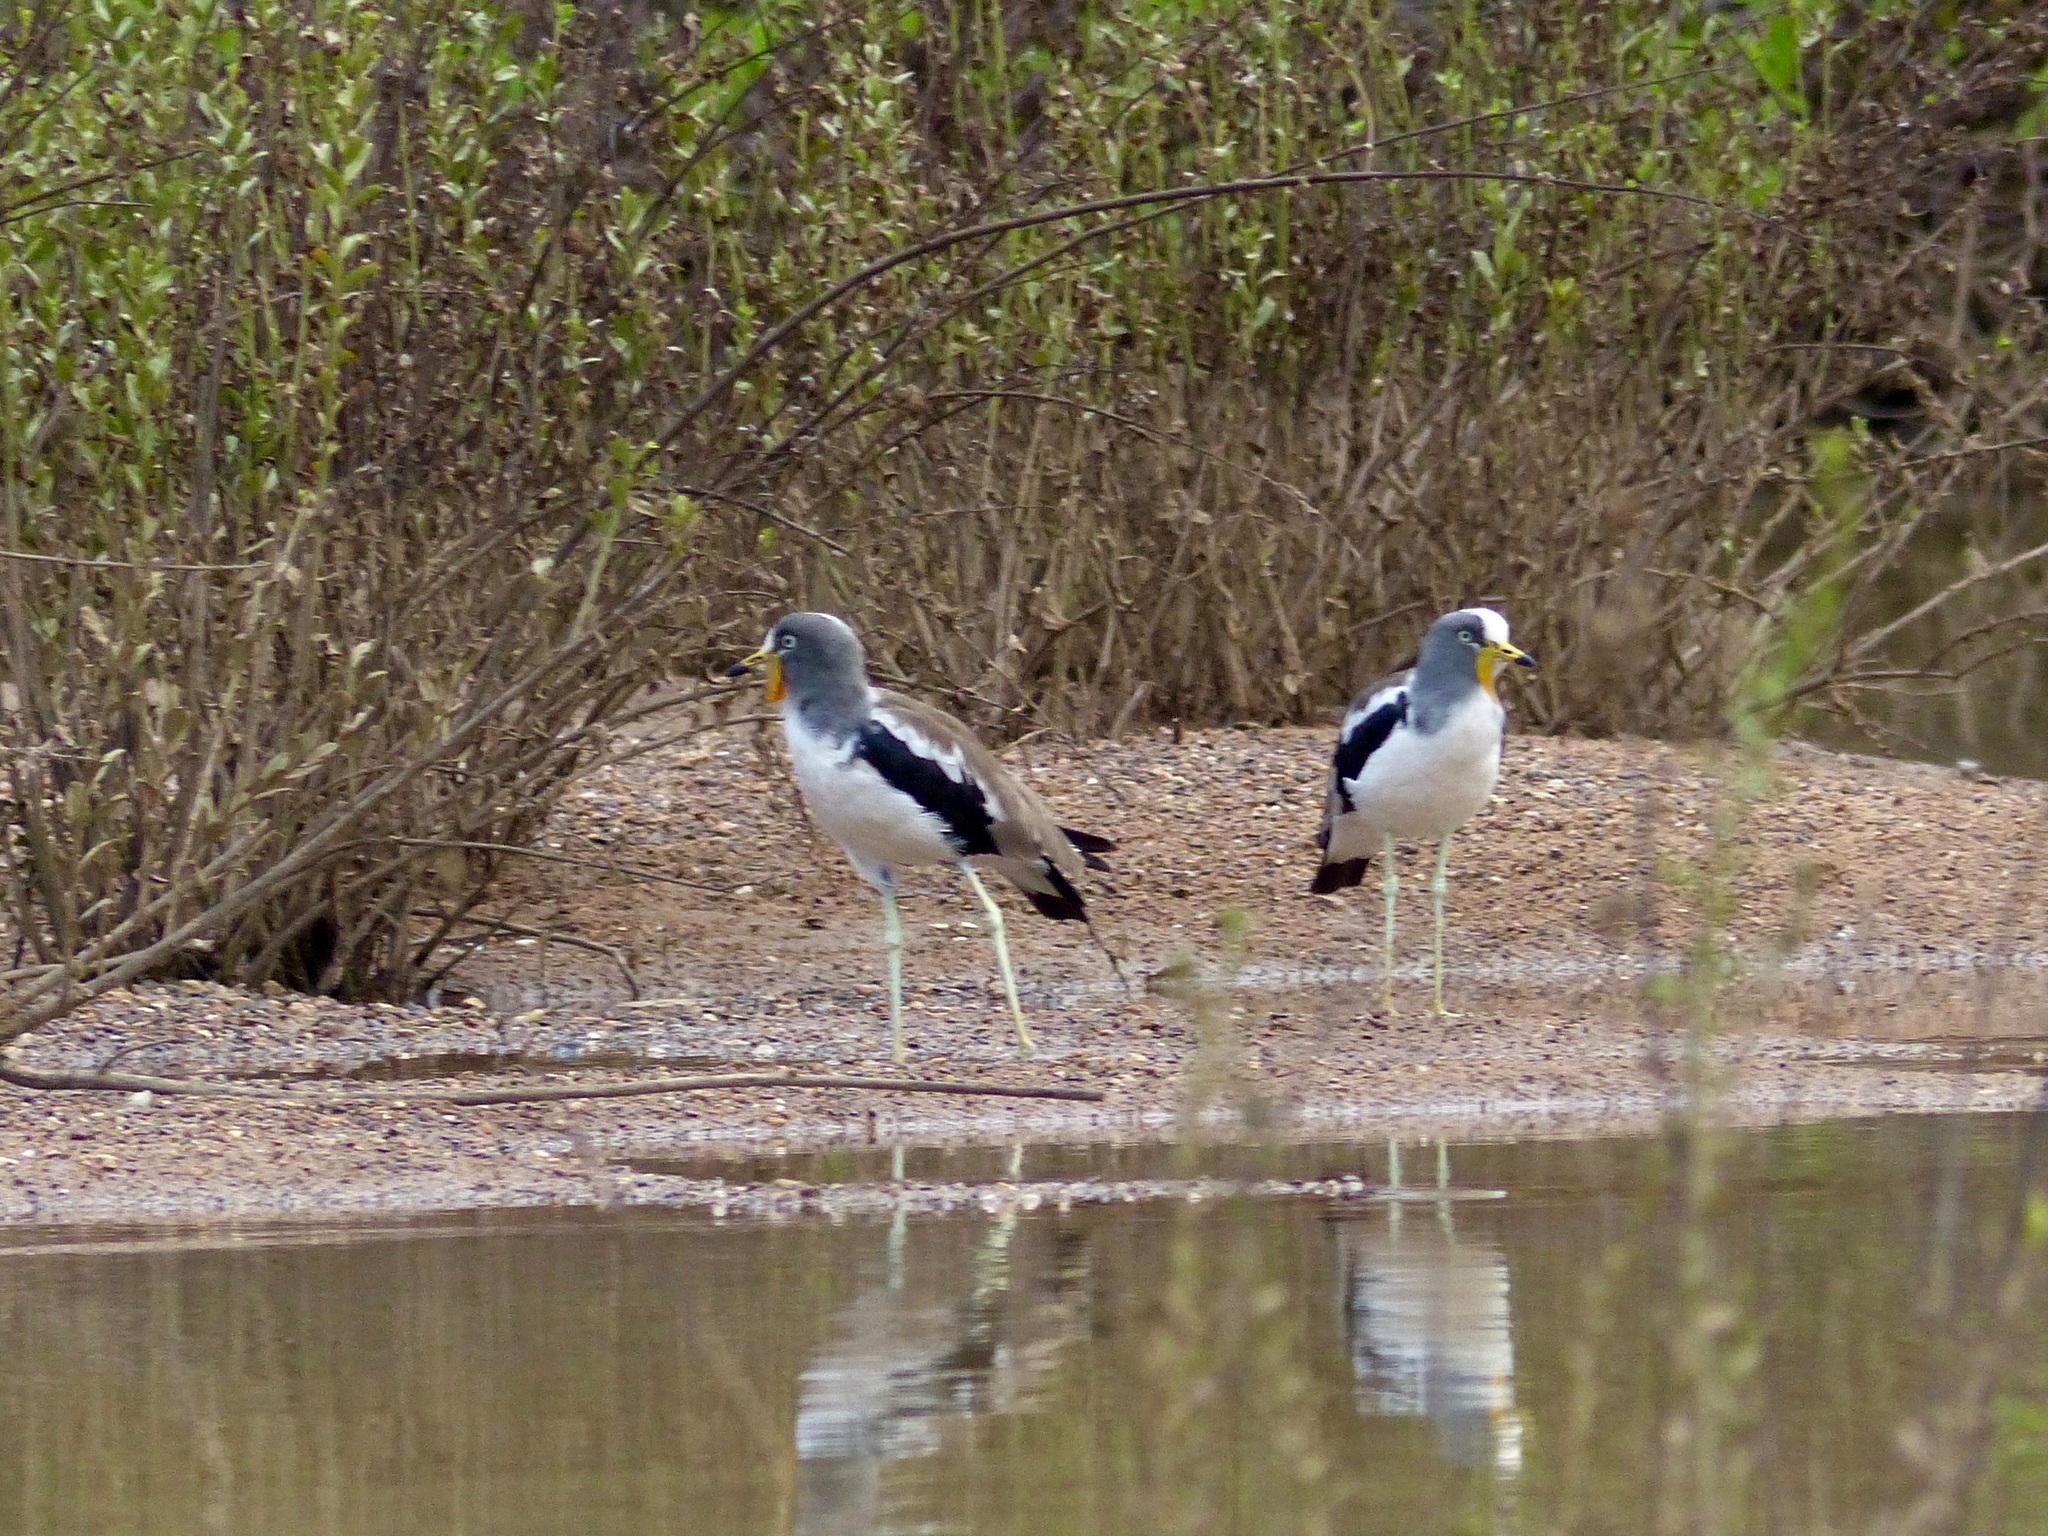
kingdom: Animalia
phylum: Chordata
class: Aves
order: Charadriiformes
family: Charadriidae
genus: Vanellus
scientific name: Vanellus albiceps
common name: White-crowned lapwing
